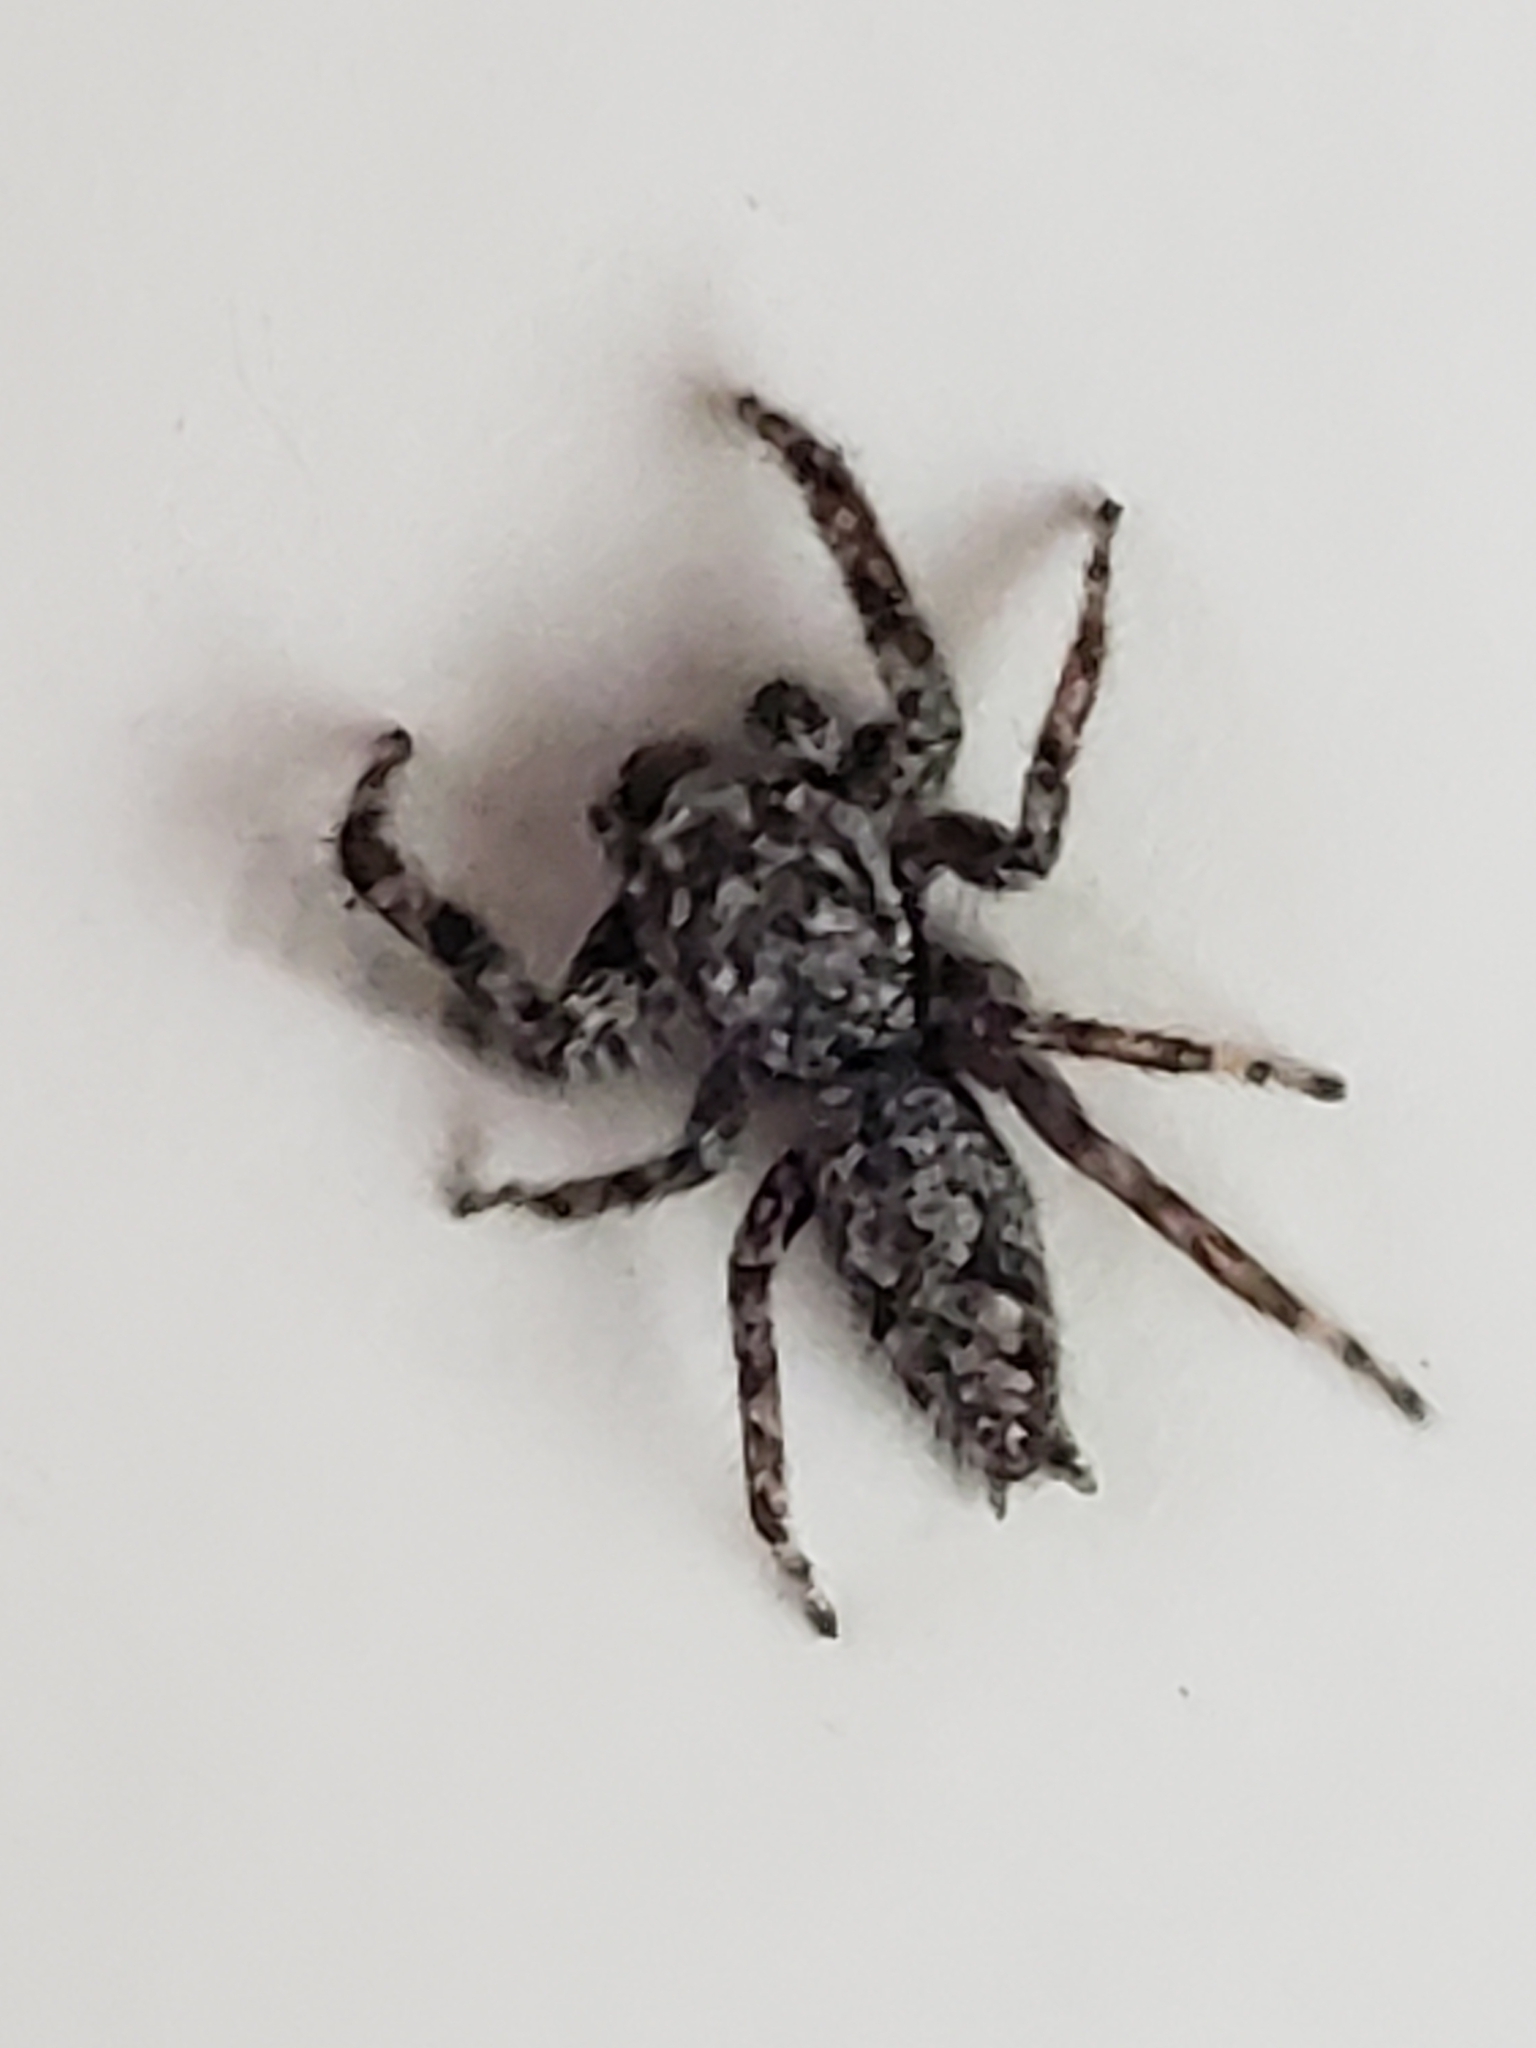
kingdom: Animalia
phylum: Arthropoda
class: Arachnida
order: Araneae
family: Salticidae
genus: Platycryptus
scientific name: Platycryptus undatus
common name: Tan jumping spider
